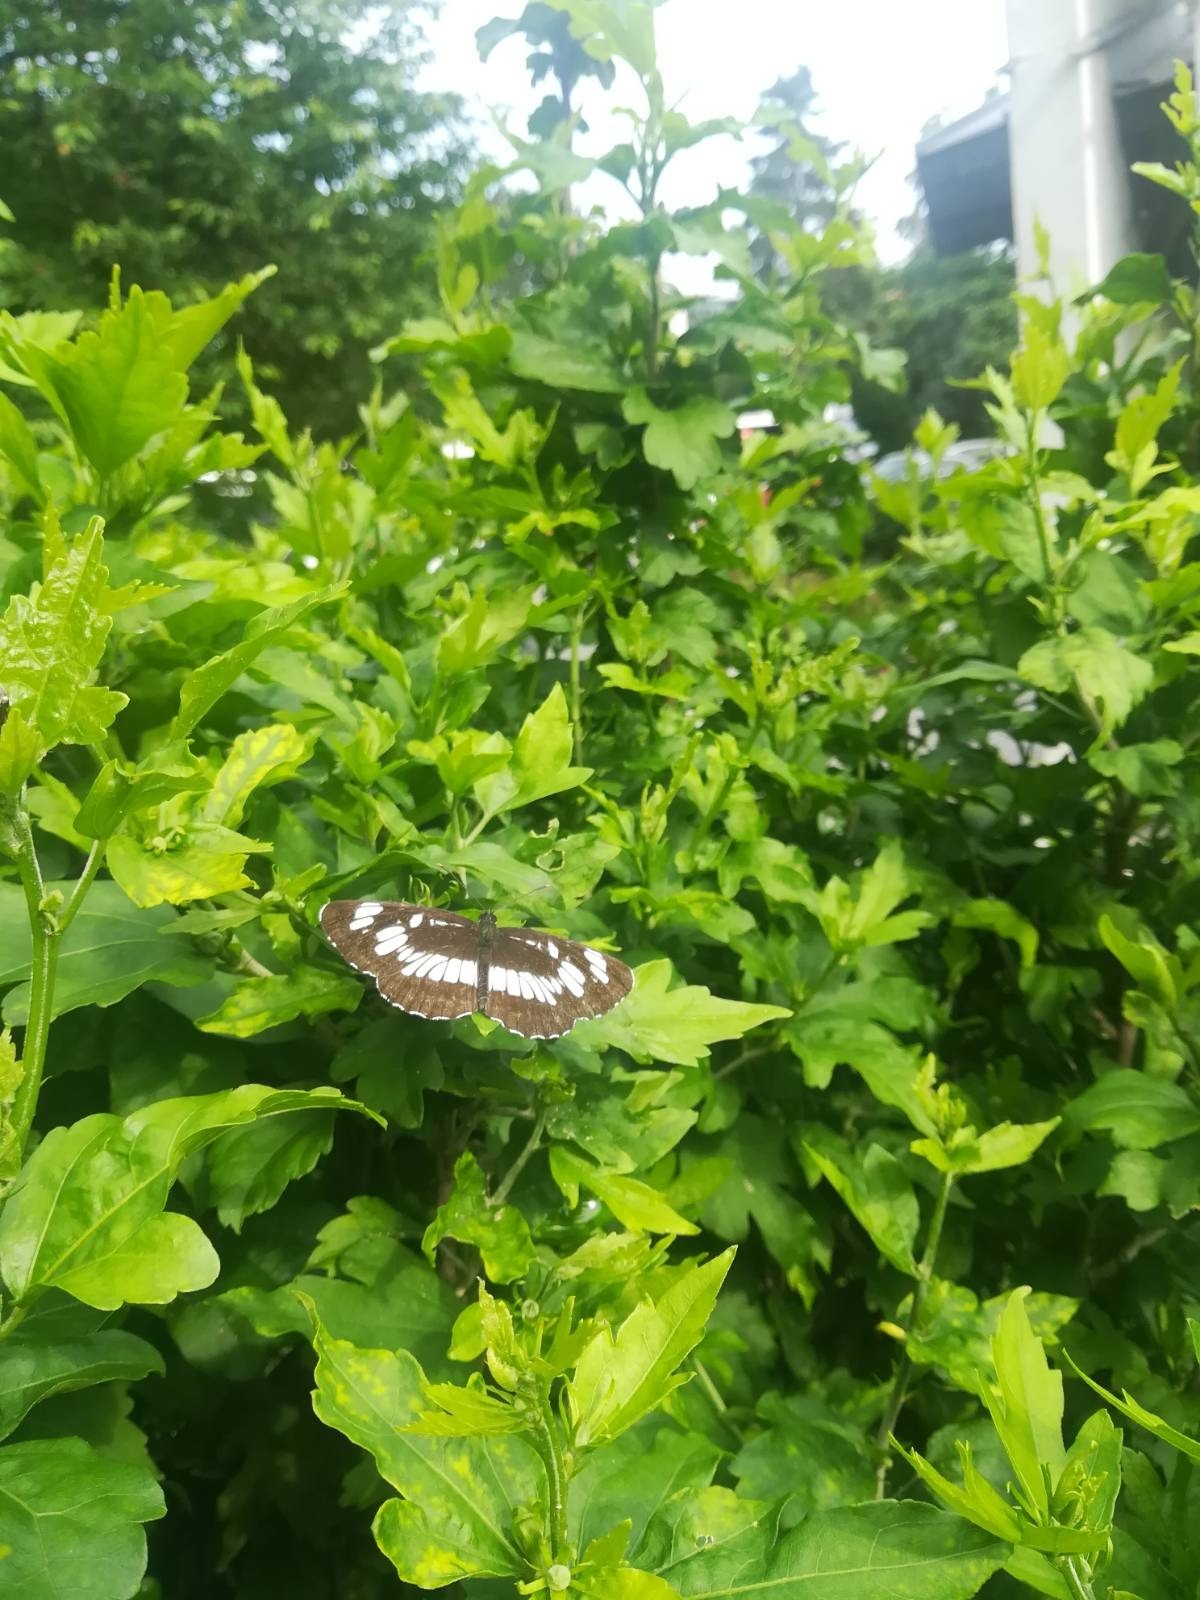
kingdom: Animalia
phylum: Arthropoda
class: Insecta
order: Lepidoptera
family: Nymphalidae
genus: Neptis
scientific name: Neptis rivularis
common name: Hungarian glider
